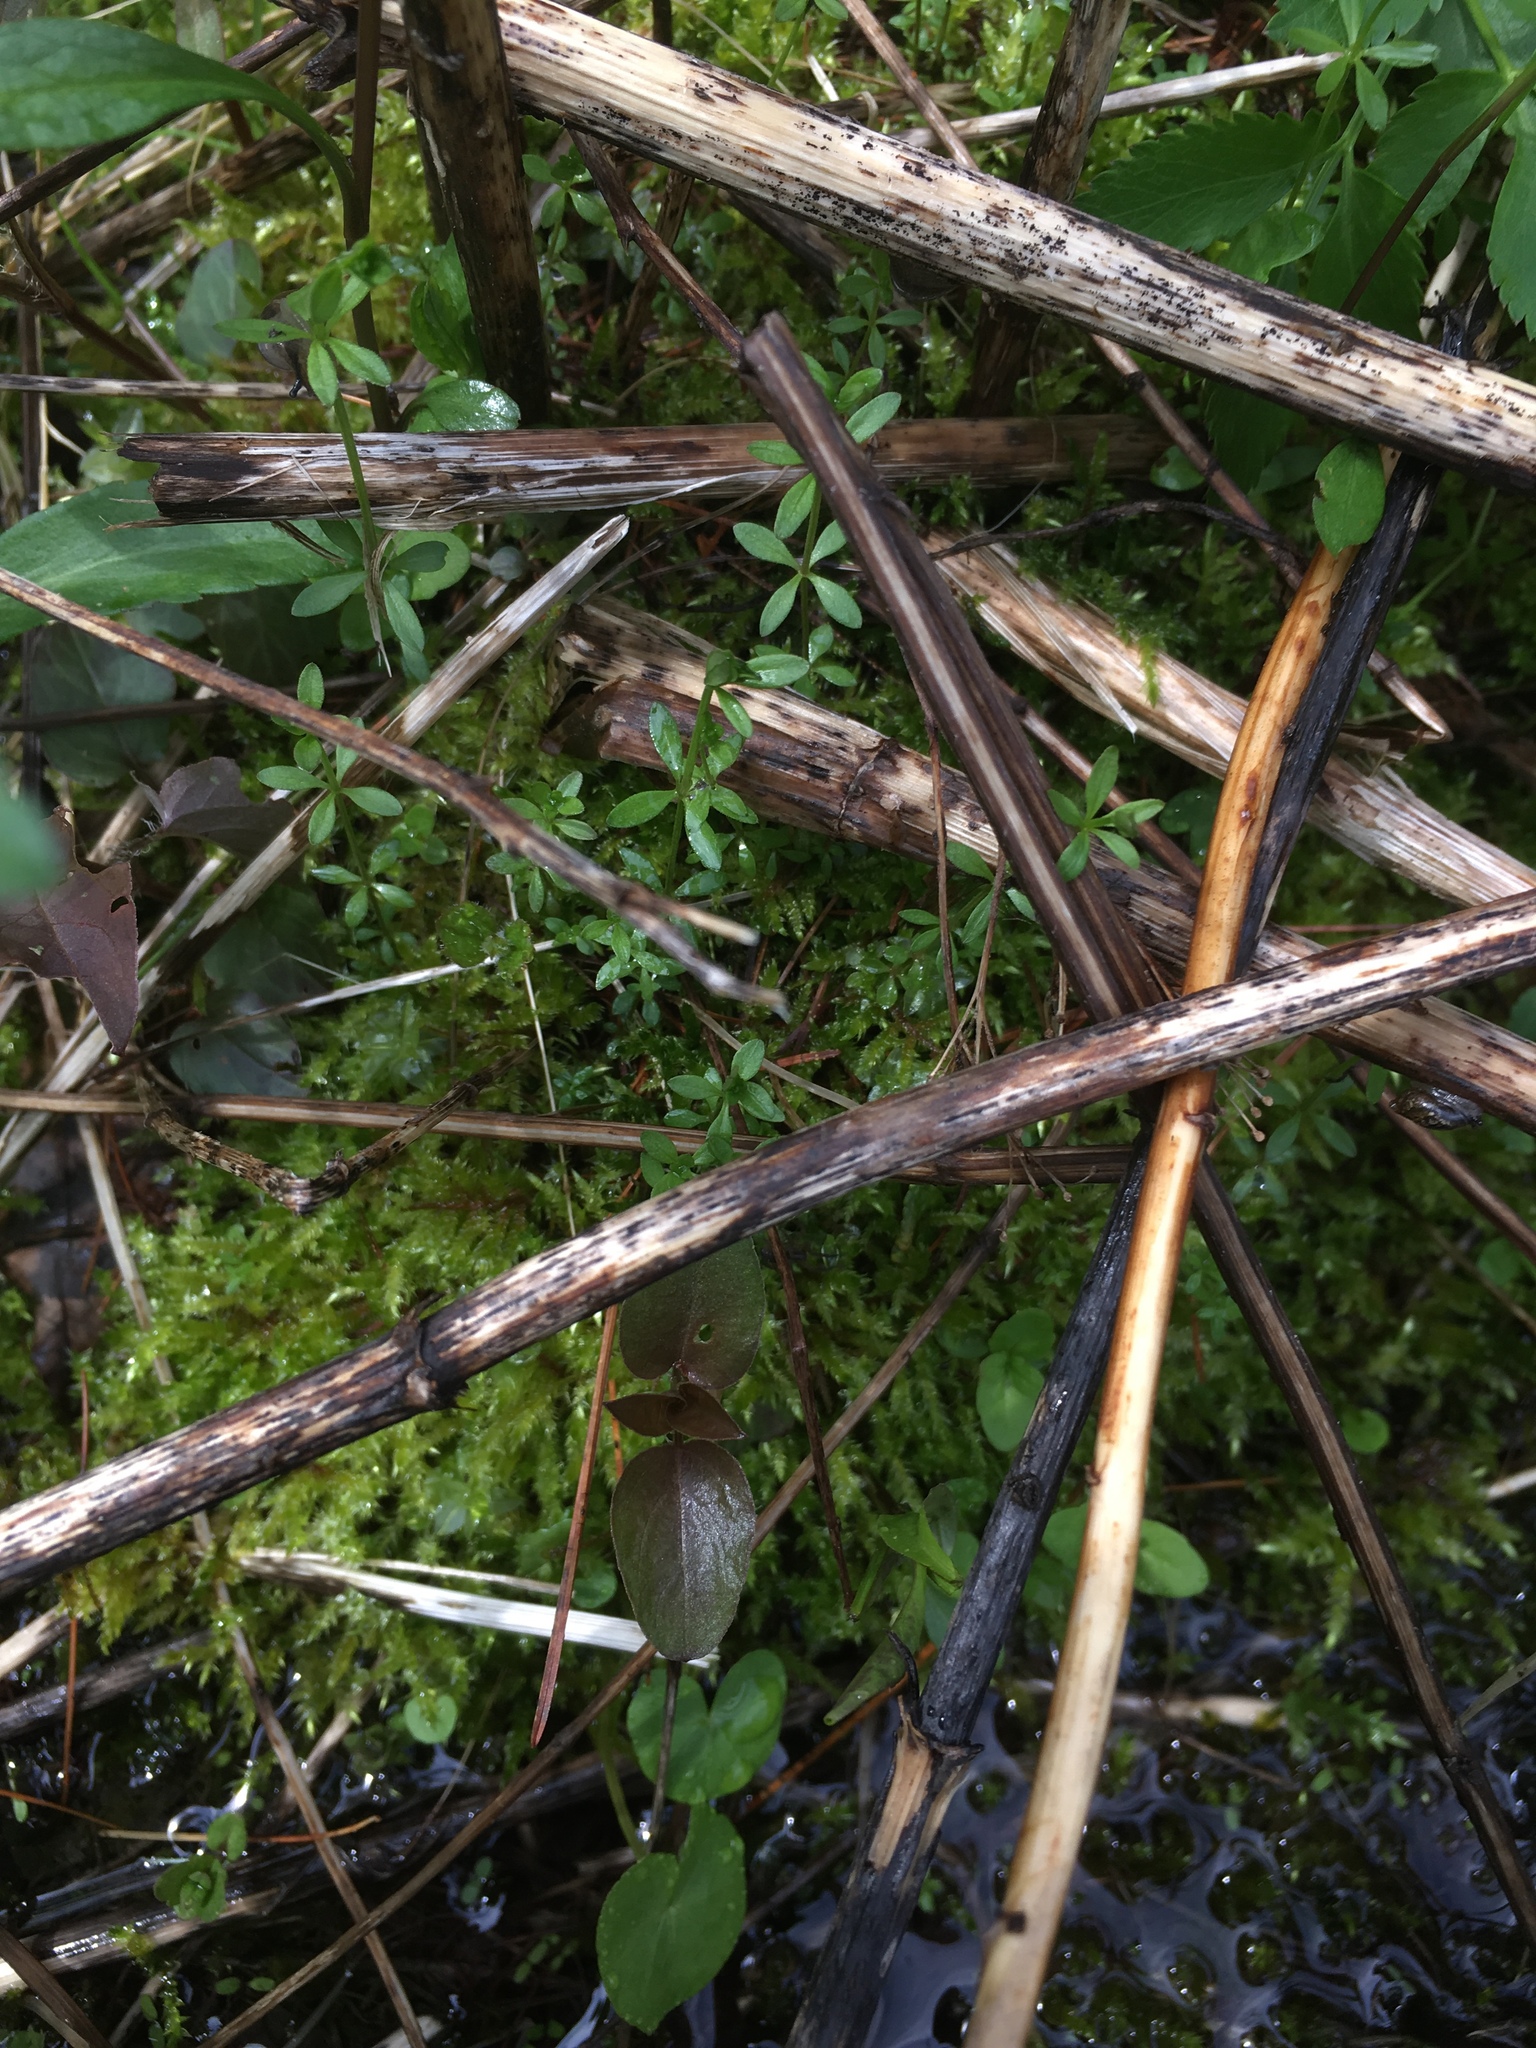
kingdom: Plantae
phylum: Tracheophyta
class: Magnoliopsida
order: Gentianales
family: Rubiaceae
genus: Galium
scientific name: Galium palustre
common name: Common marsh-bedstraw
